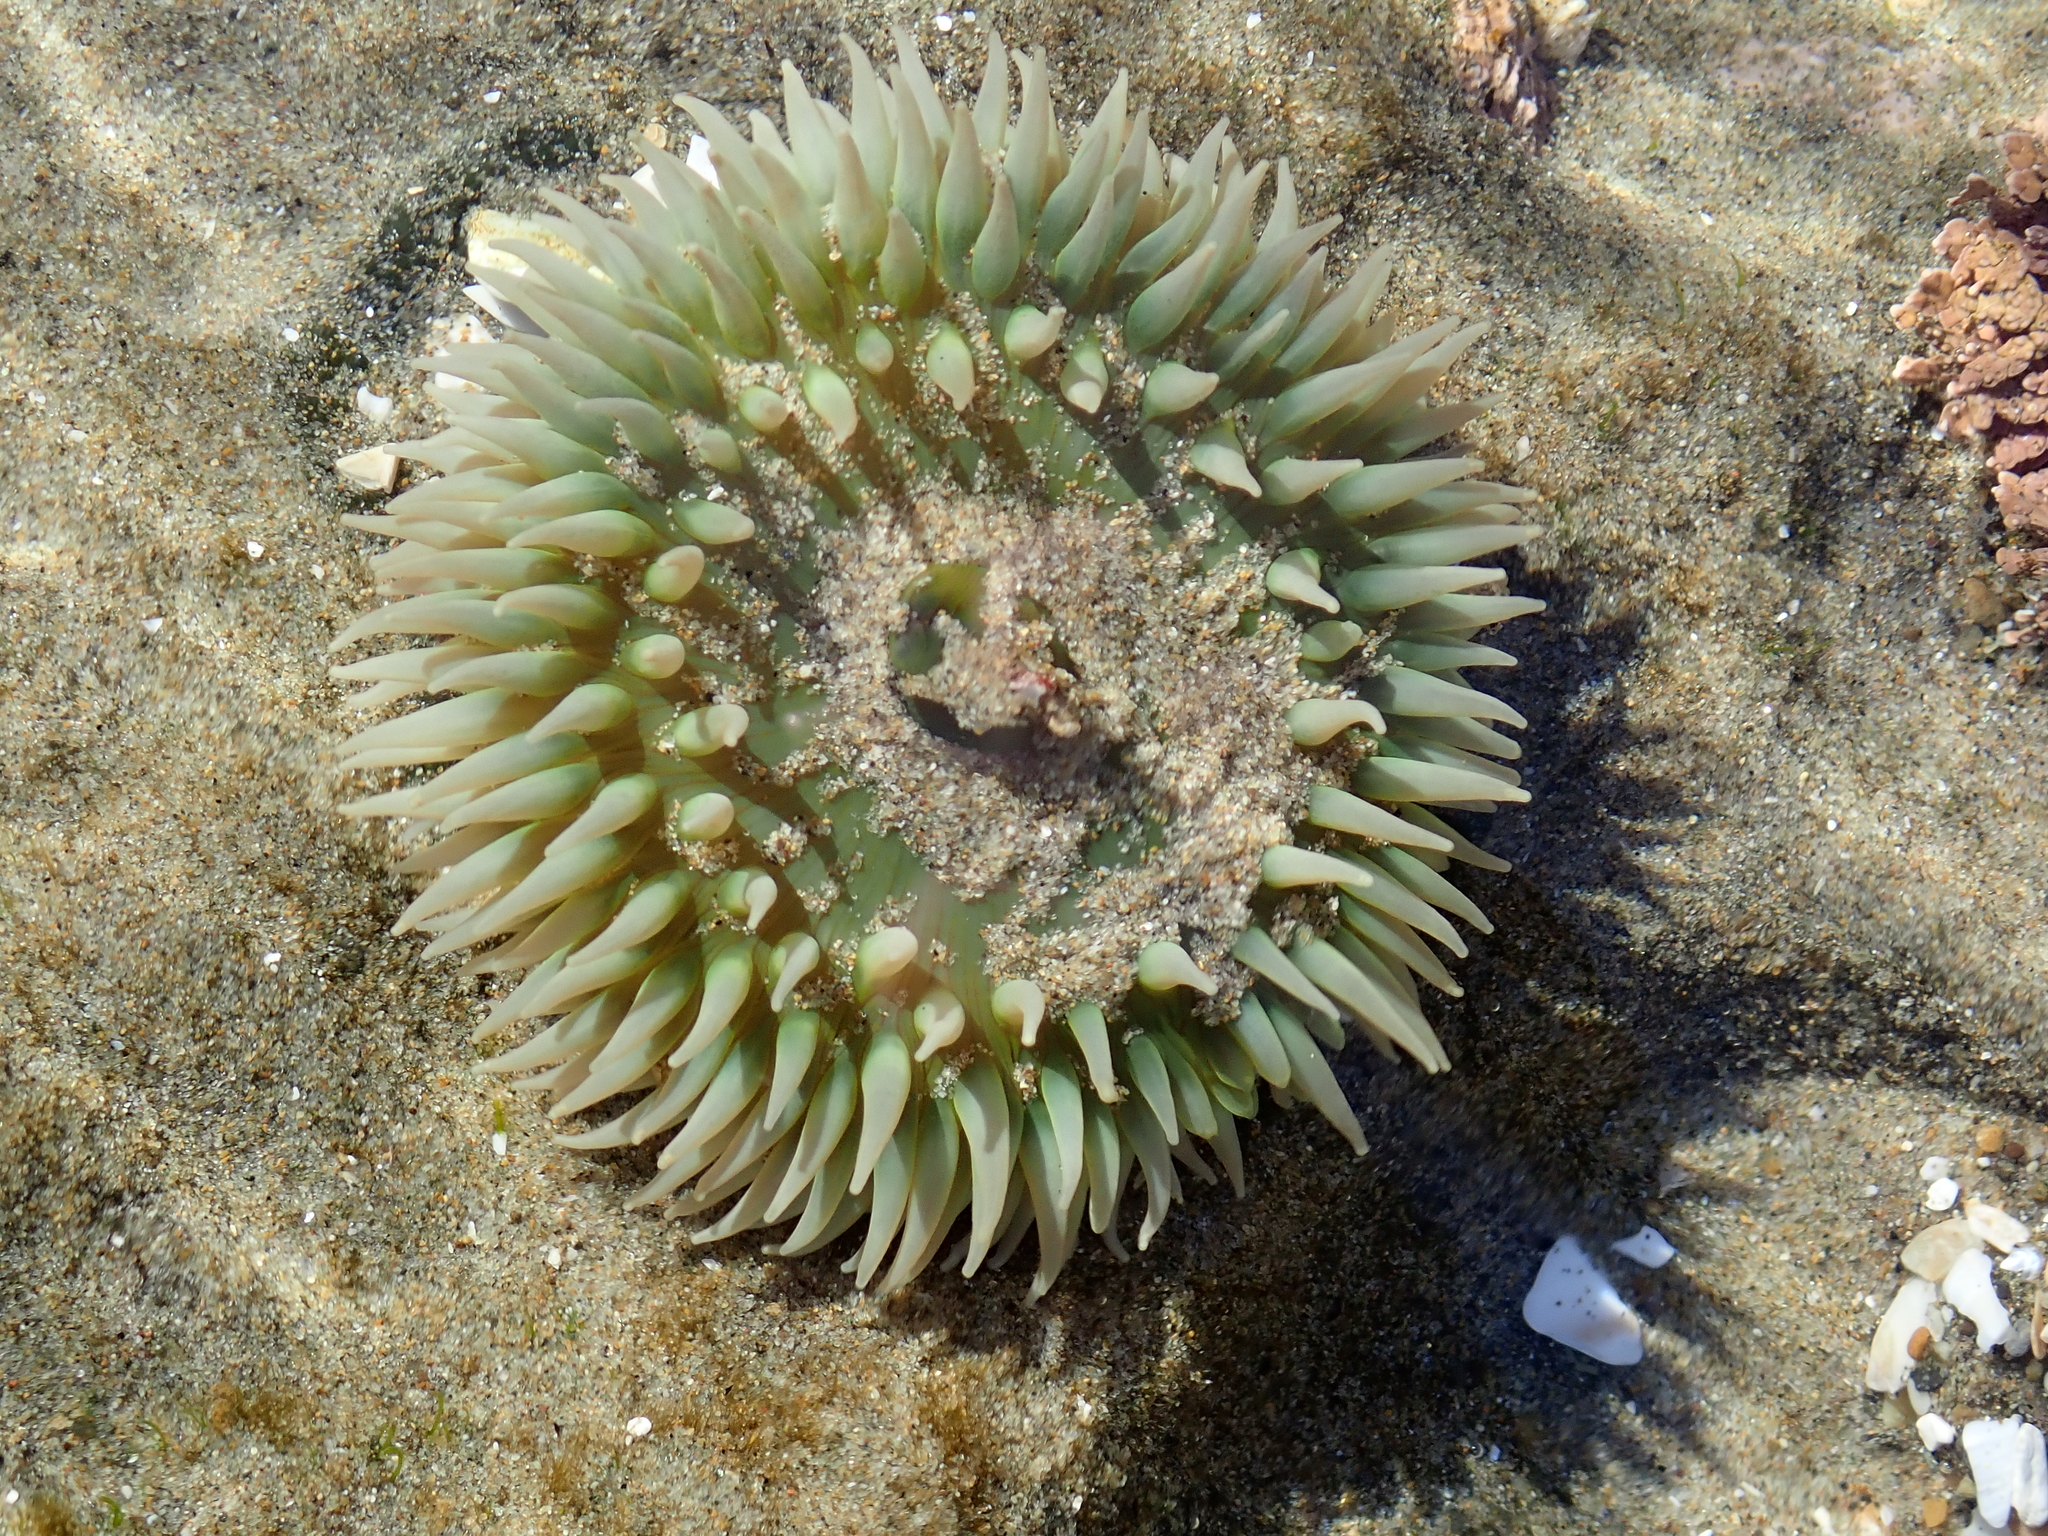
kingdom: Animalia
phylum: Cnidaria
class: Anthozoa
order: Actiniaria
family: Actiniidae
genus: Anthopleura
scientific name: Anthopleura xanthogrammica
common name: Giant green anemone
